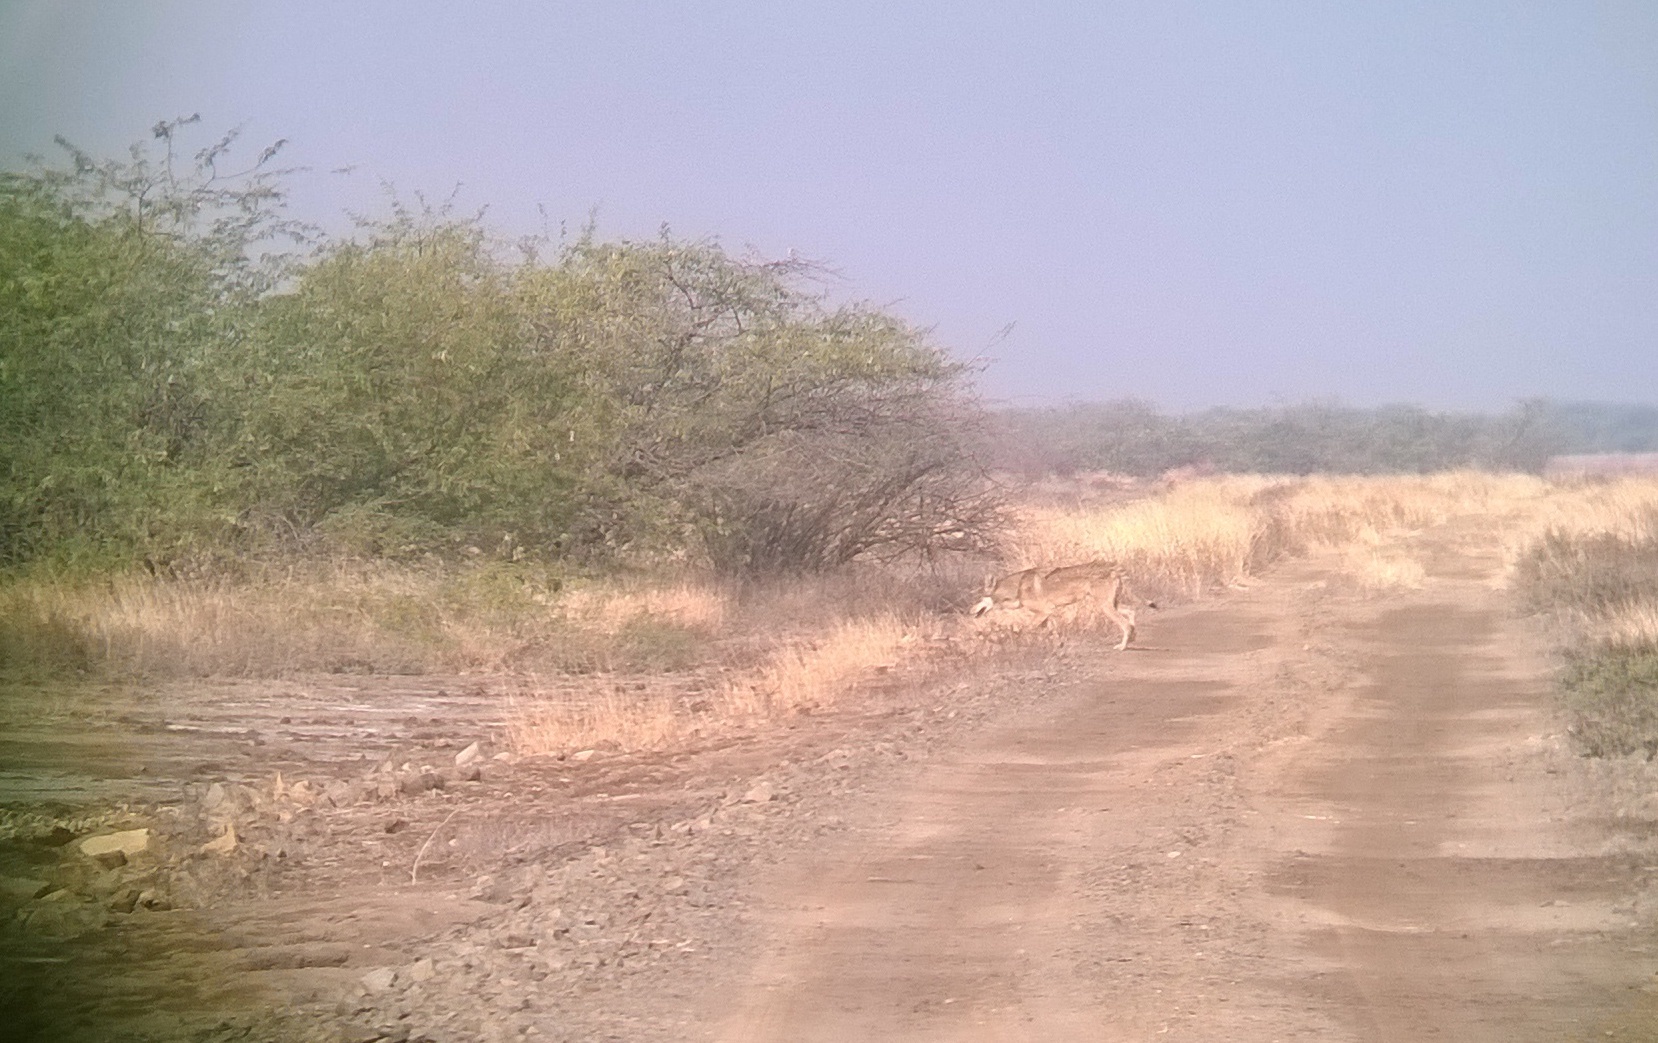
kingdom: Animalia
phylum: Chordata
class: Mammalia
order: Carnivora
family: Canidae
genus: Canis
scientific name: Canis lupus
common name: Gray wolf
